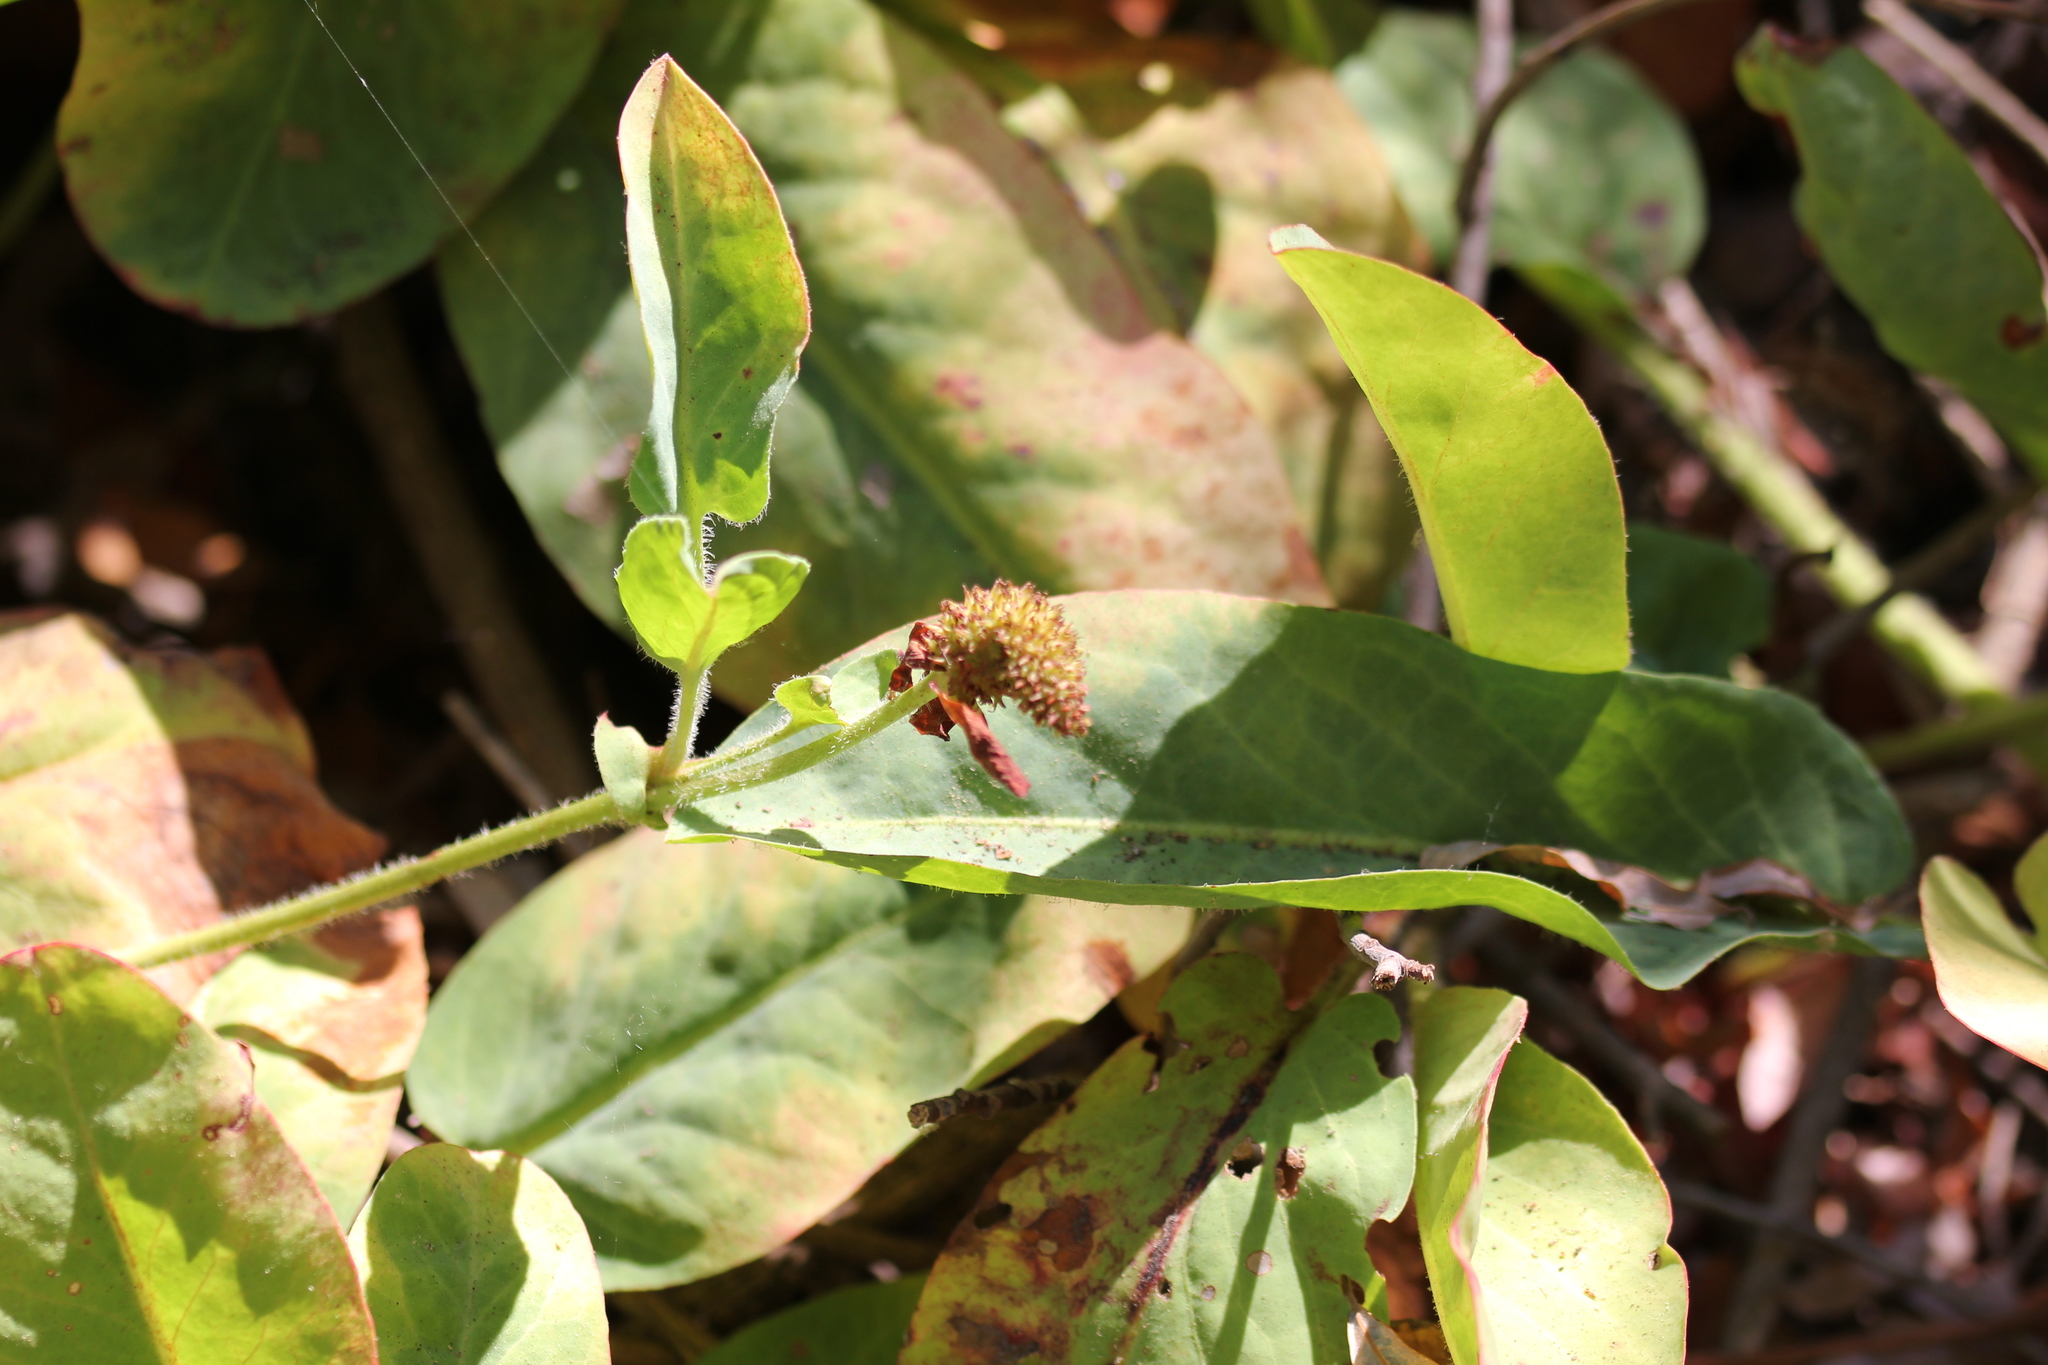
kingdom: Plantae
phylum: Tracheophyta
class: Magnoliopsida
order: Piperales
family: Saururaceae
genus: Anemopsis
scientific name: Anemopsis californica
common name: Apache-beads
